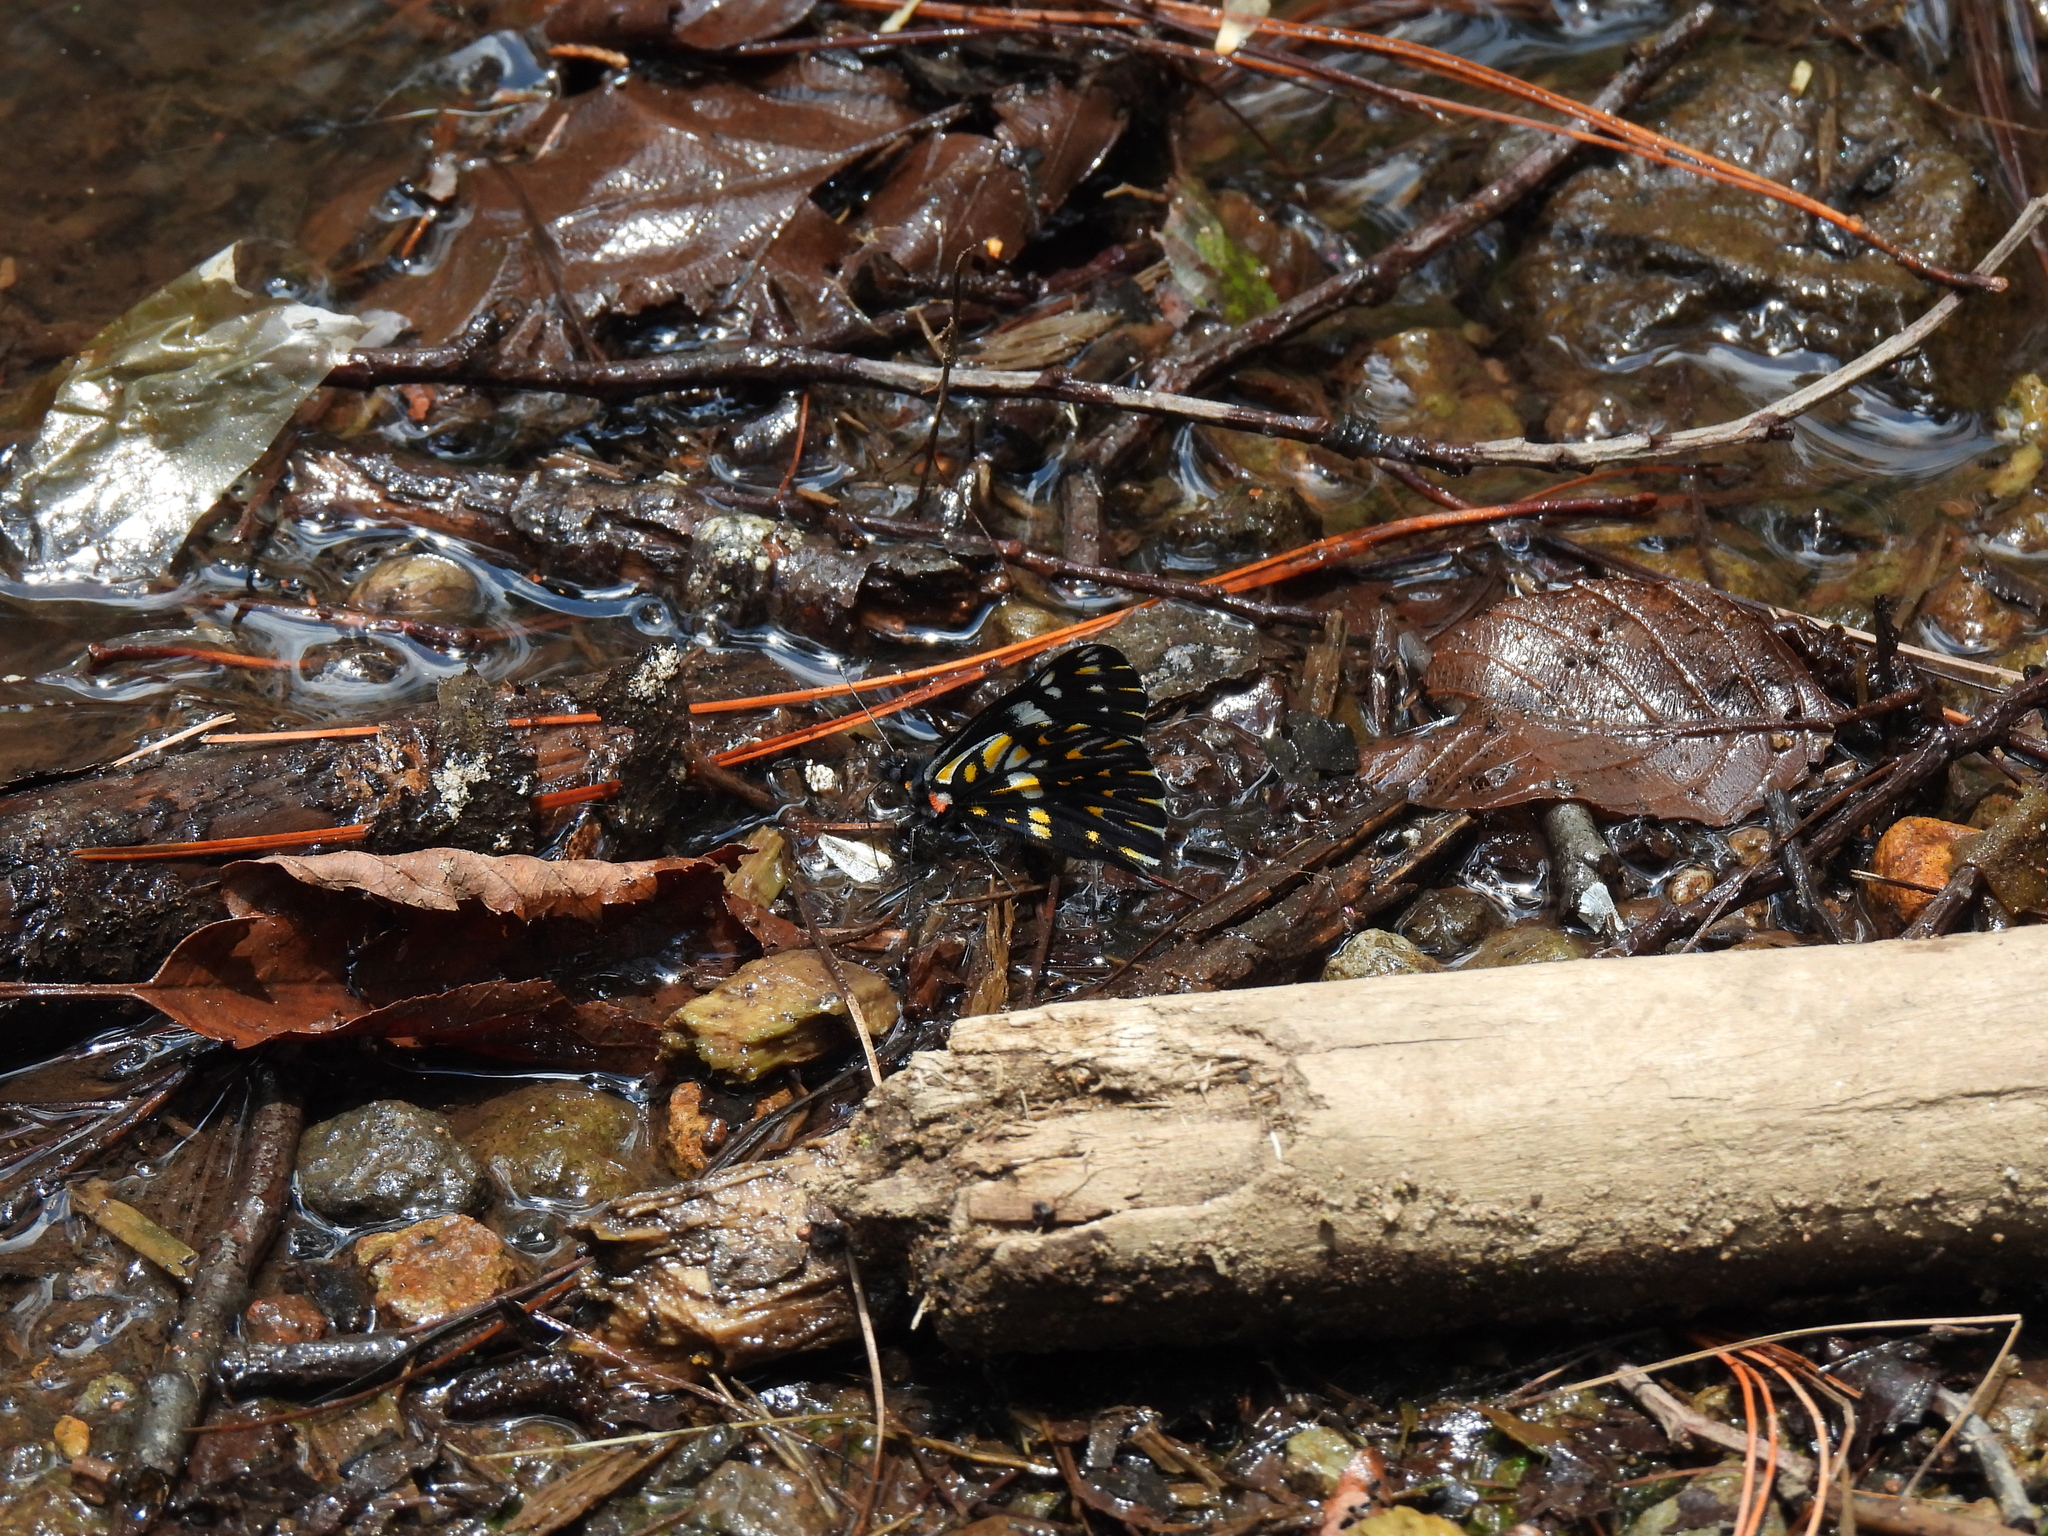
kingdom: Animalia
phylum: Arthropoda
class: Insecta
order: Lepidoptera
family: Pieridae
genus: Archonias
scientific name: Archonias teutila
